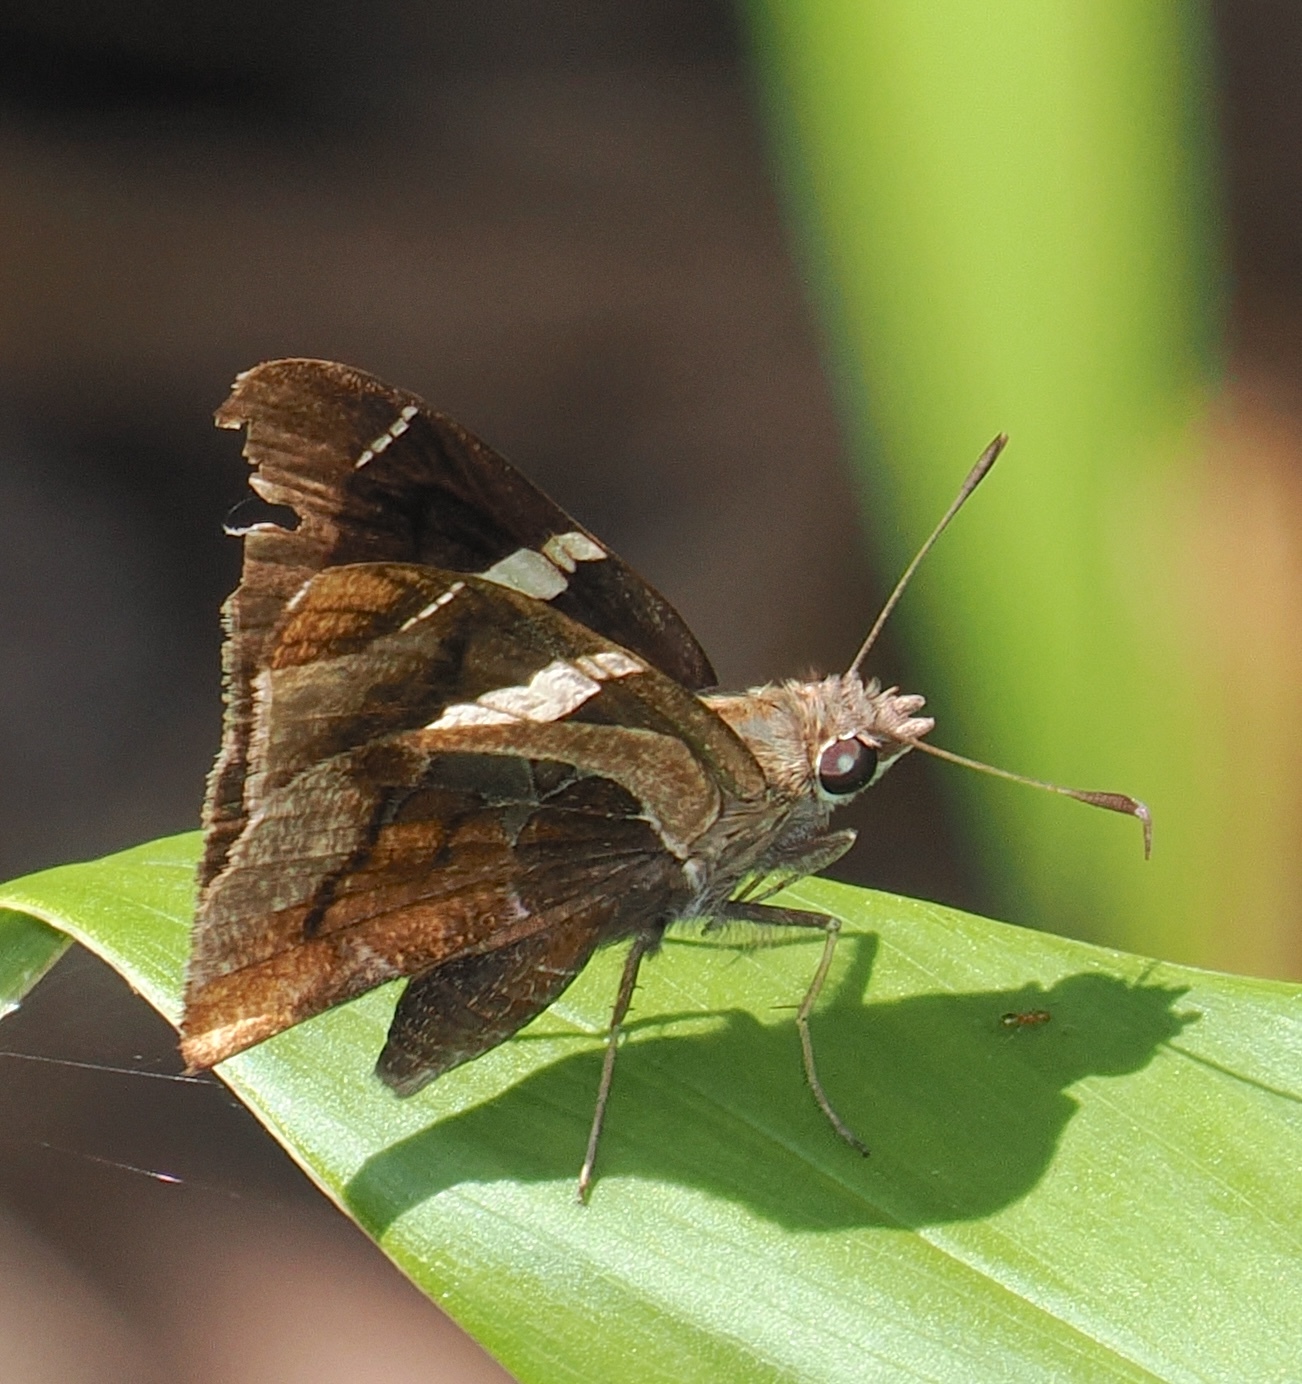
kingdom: Animalia
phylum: Arthropoda
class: Insecta
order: Lepidoptera
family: Hesperiidae
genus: Oechydrus
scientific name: Oechydrus chersis
